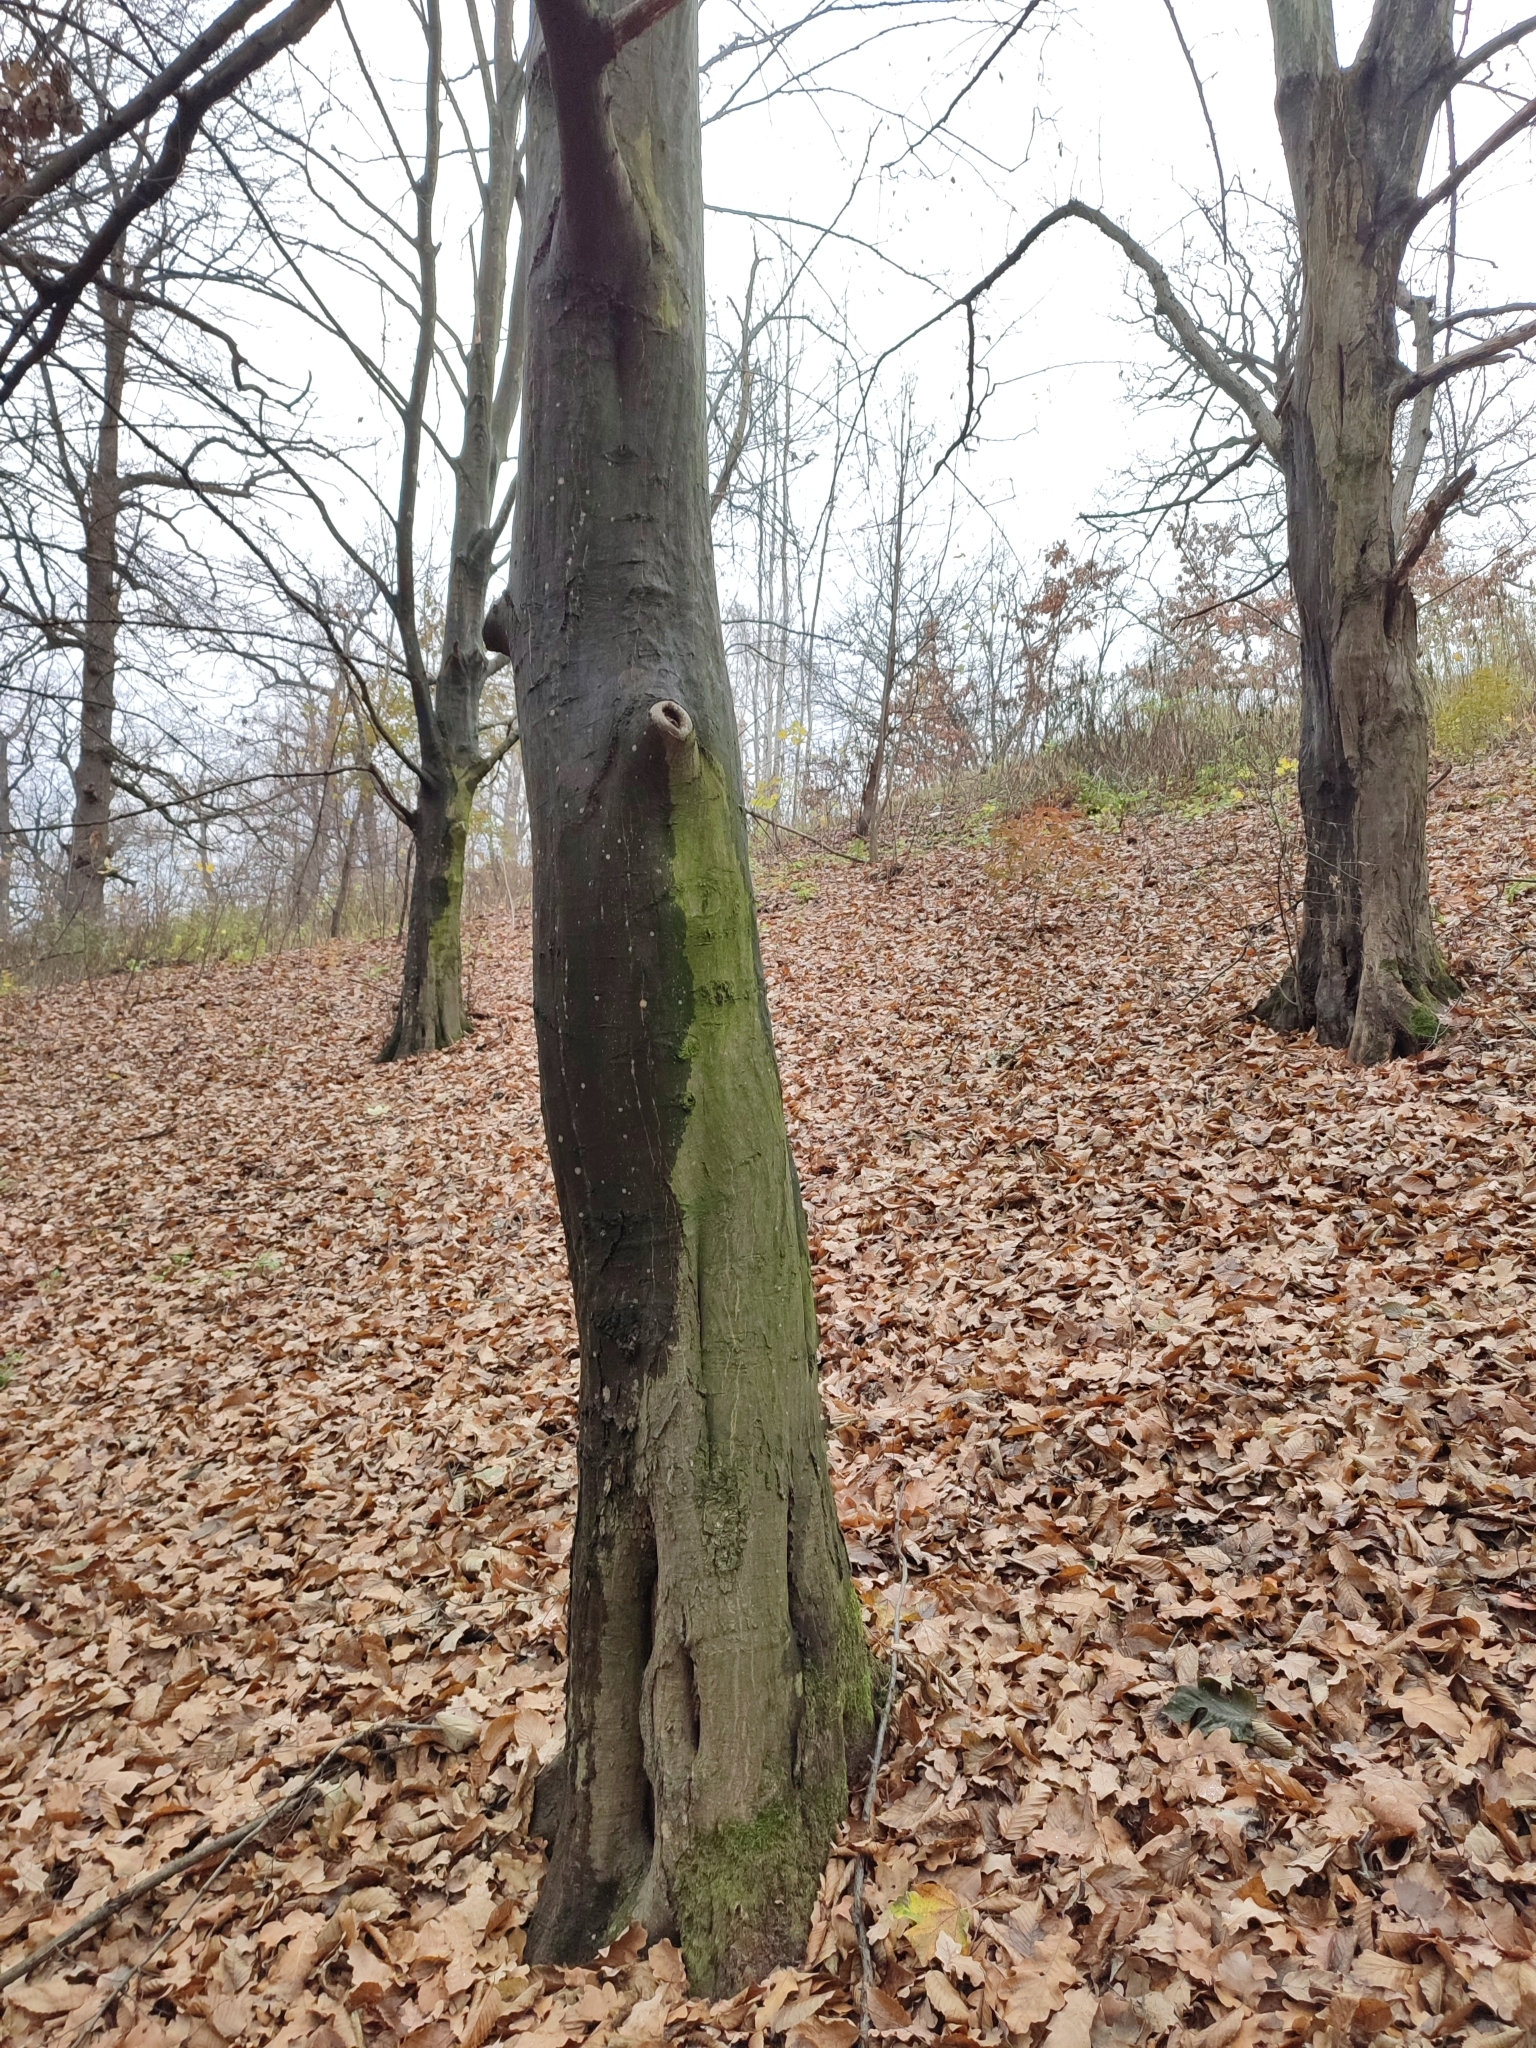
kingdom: Plantae
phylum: Tracheophyta
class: Magnoliopsida
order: Fagales
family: Betulaceae
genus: Carpinus
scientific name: Carpinus betulus
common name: Hornbeam
